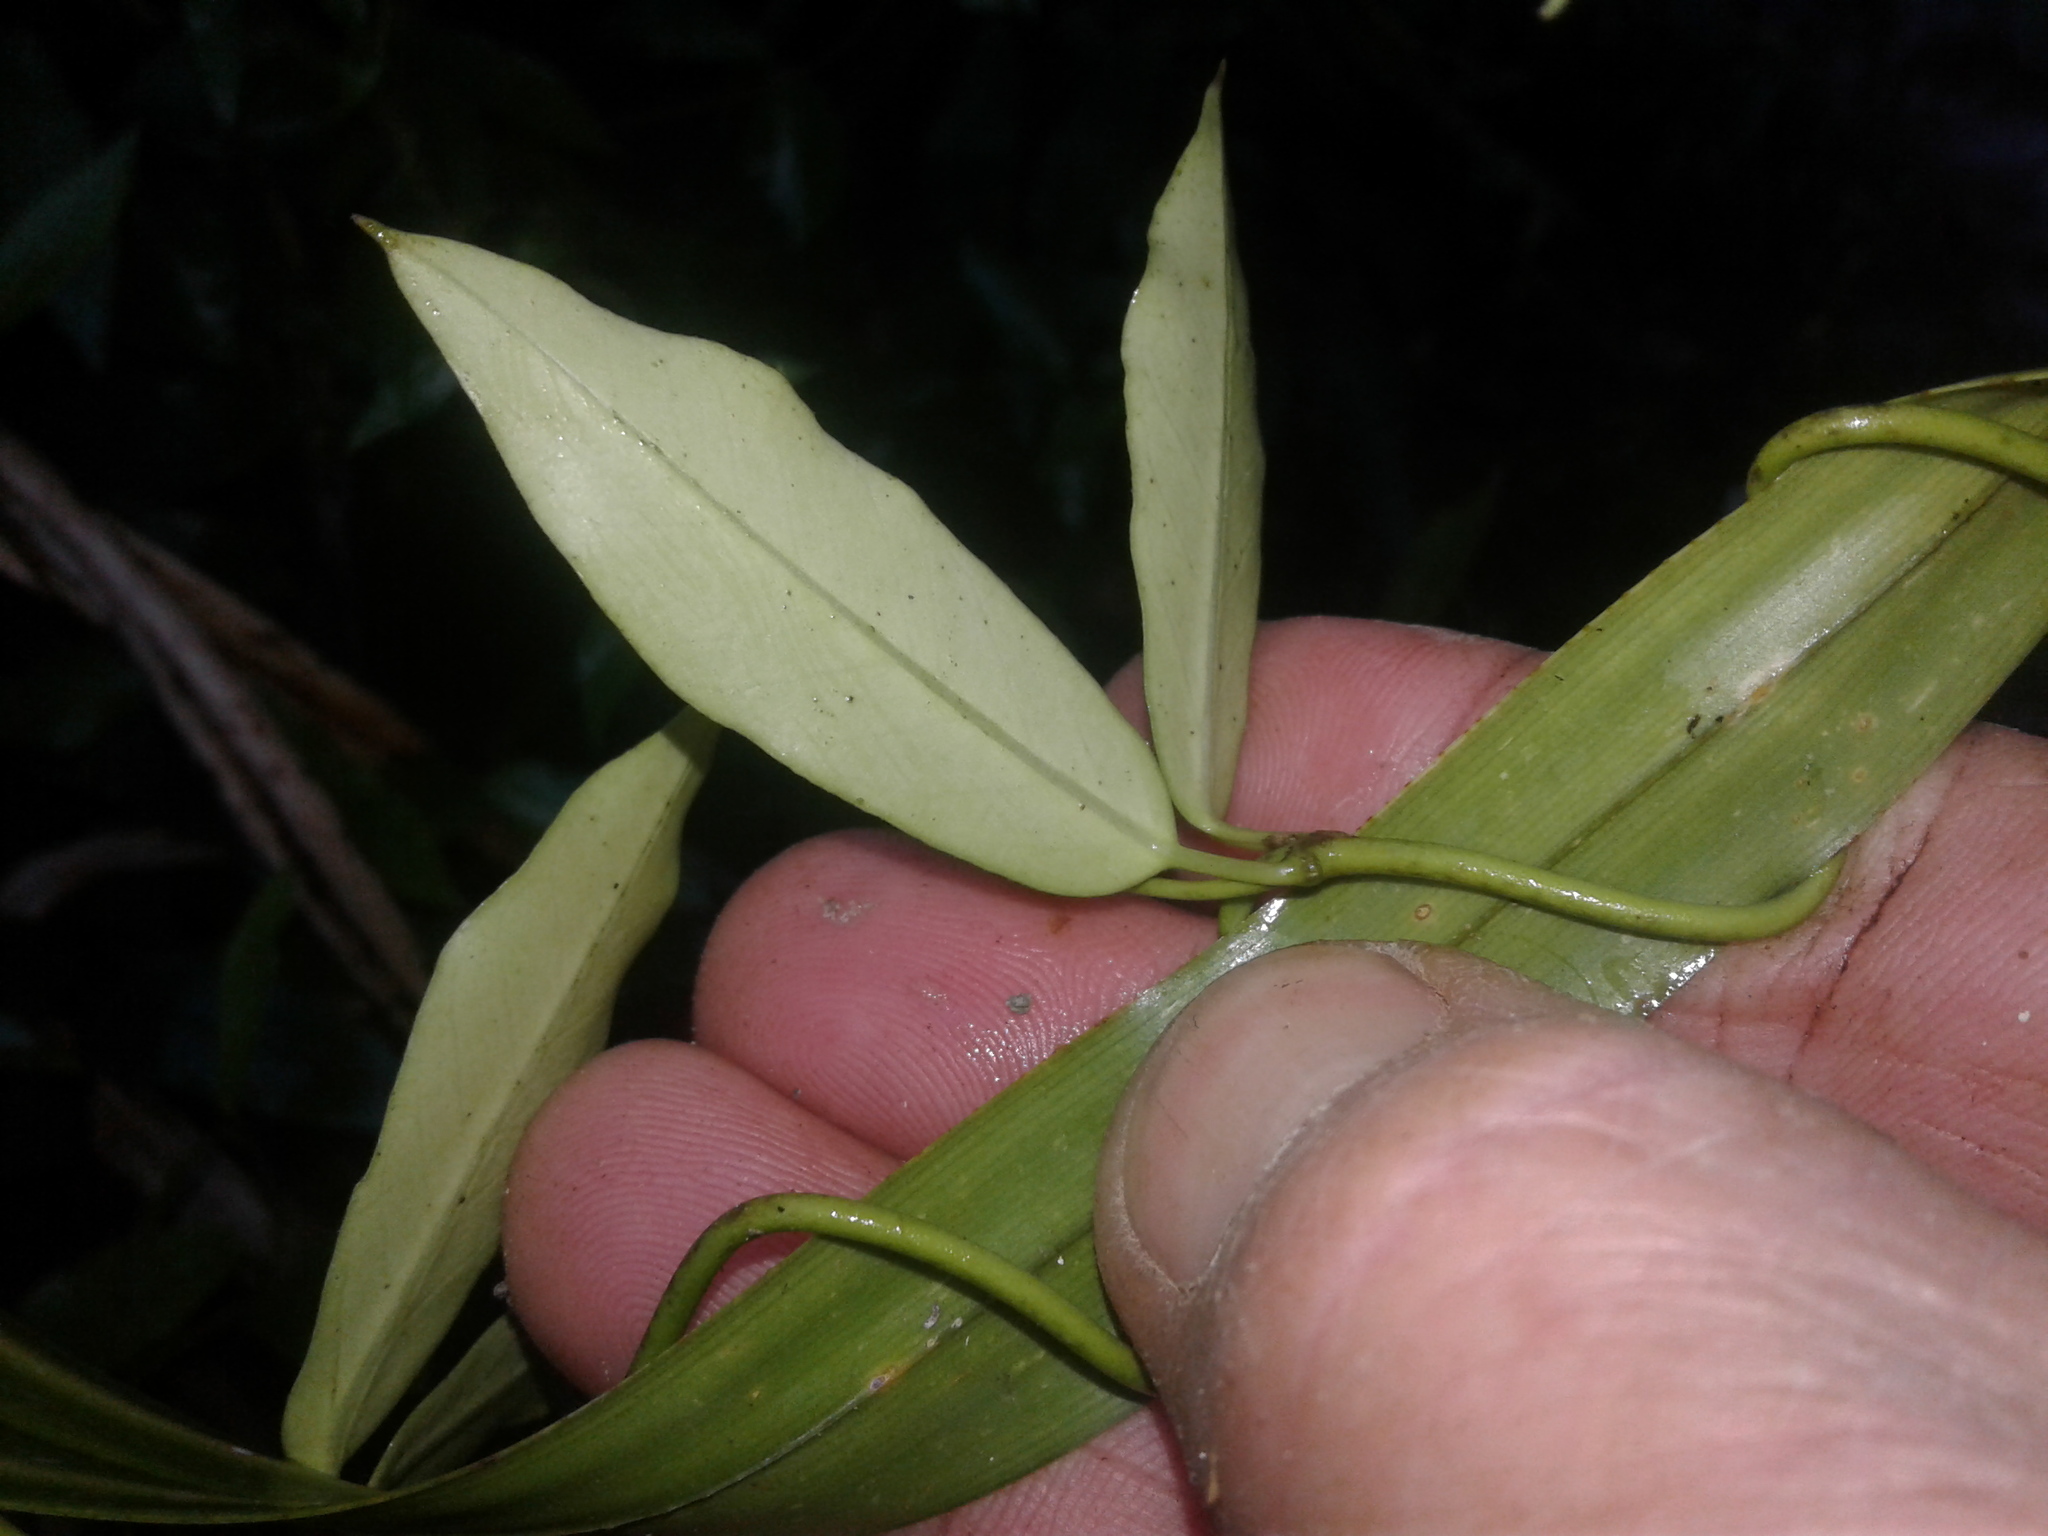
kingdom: Plantae
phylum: Tracheophyta
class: Magnoliopsida
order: Gentianales
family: Apocynaceae
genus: Parsonsia
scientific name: Parsonsia heterophylla
